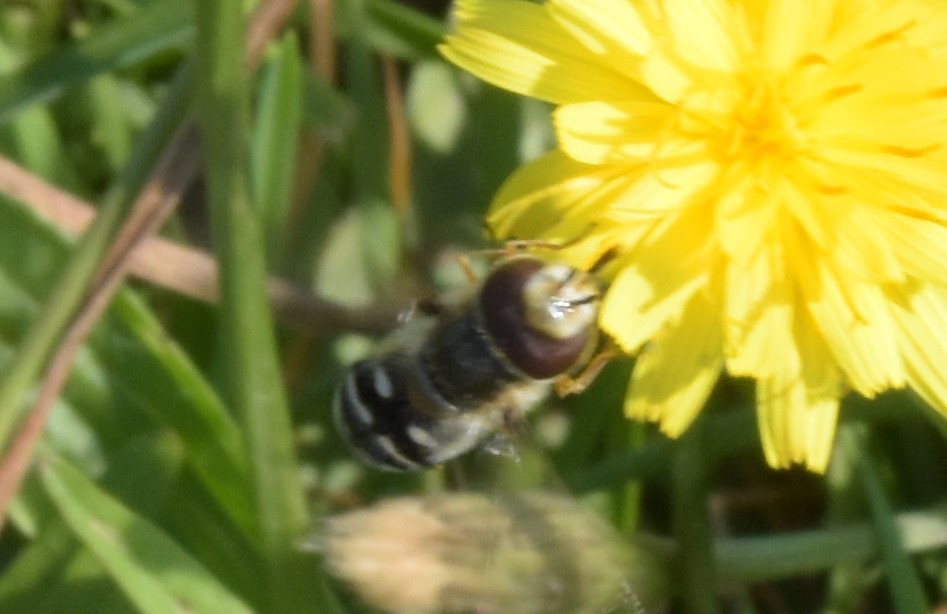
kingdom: Animalia
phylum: Arthropoda
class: Insecta
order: Diptera
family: Syrphidae
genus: Scaeva
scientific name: Scaeva pyrastri
